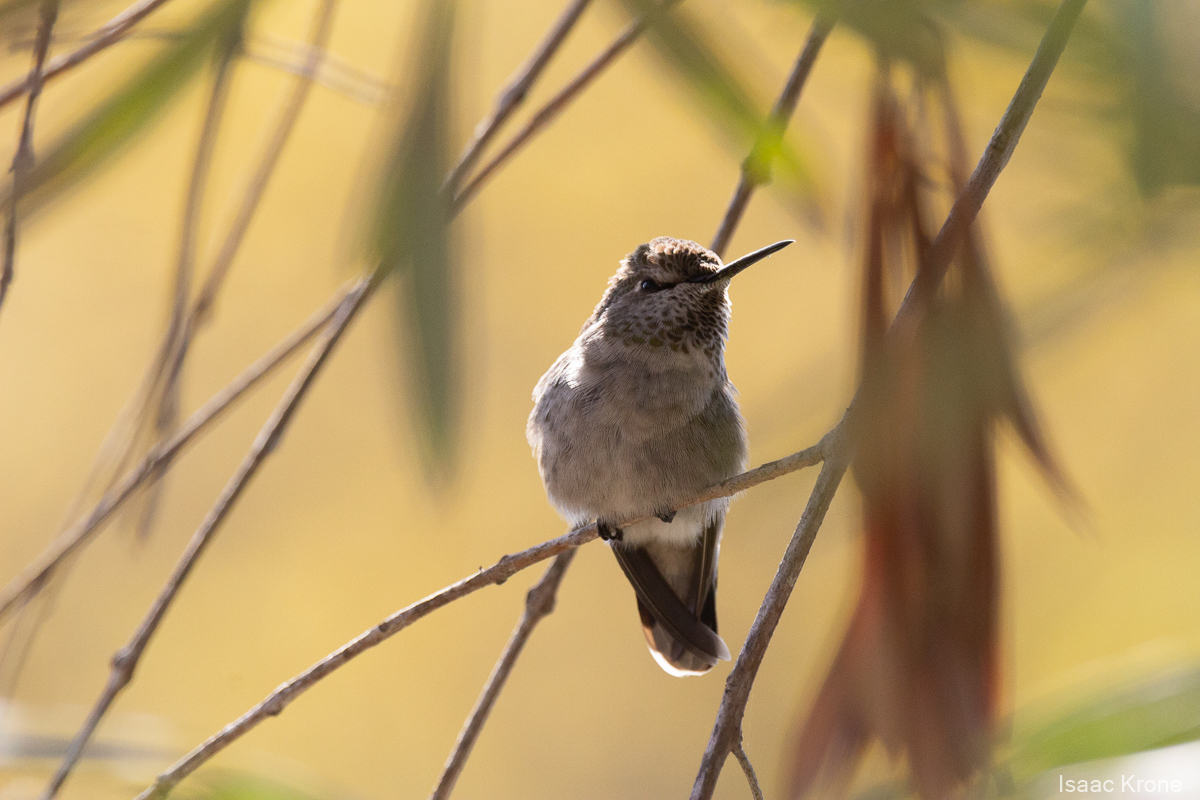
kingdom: Animalia
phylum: Chordata
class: Aves
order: Apodiformes
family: Trochilidae
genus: Calypte
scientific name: Calypte anna
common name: Anna's hummingbird
